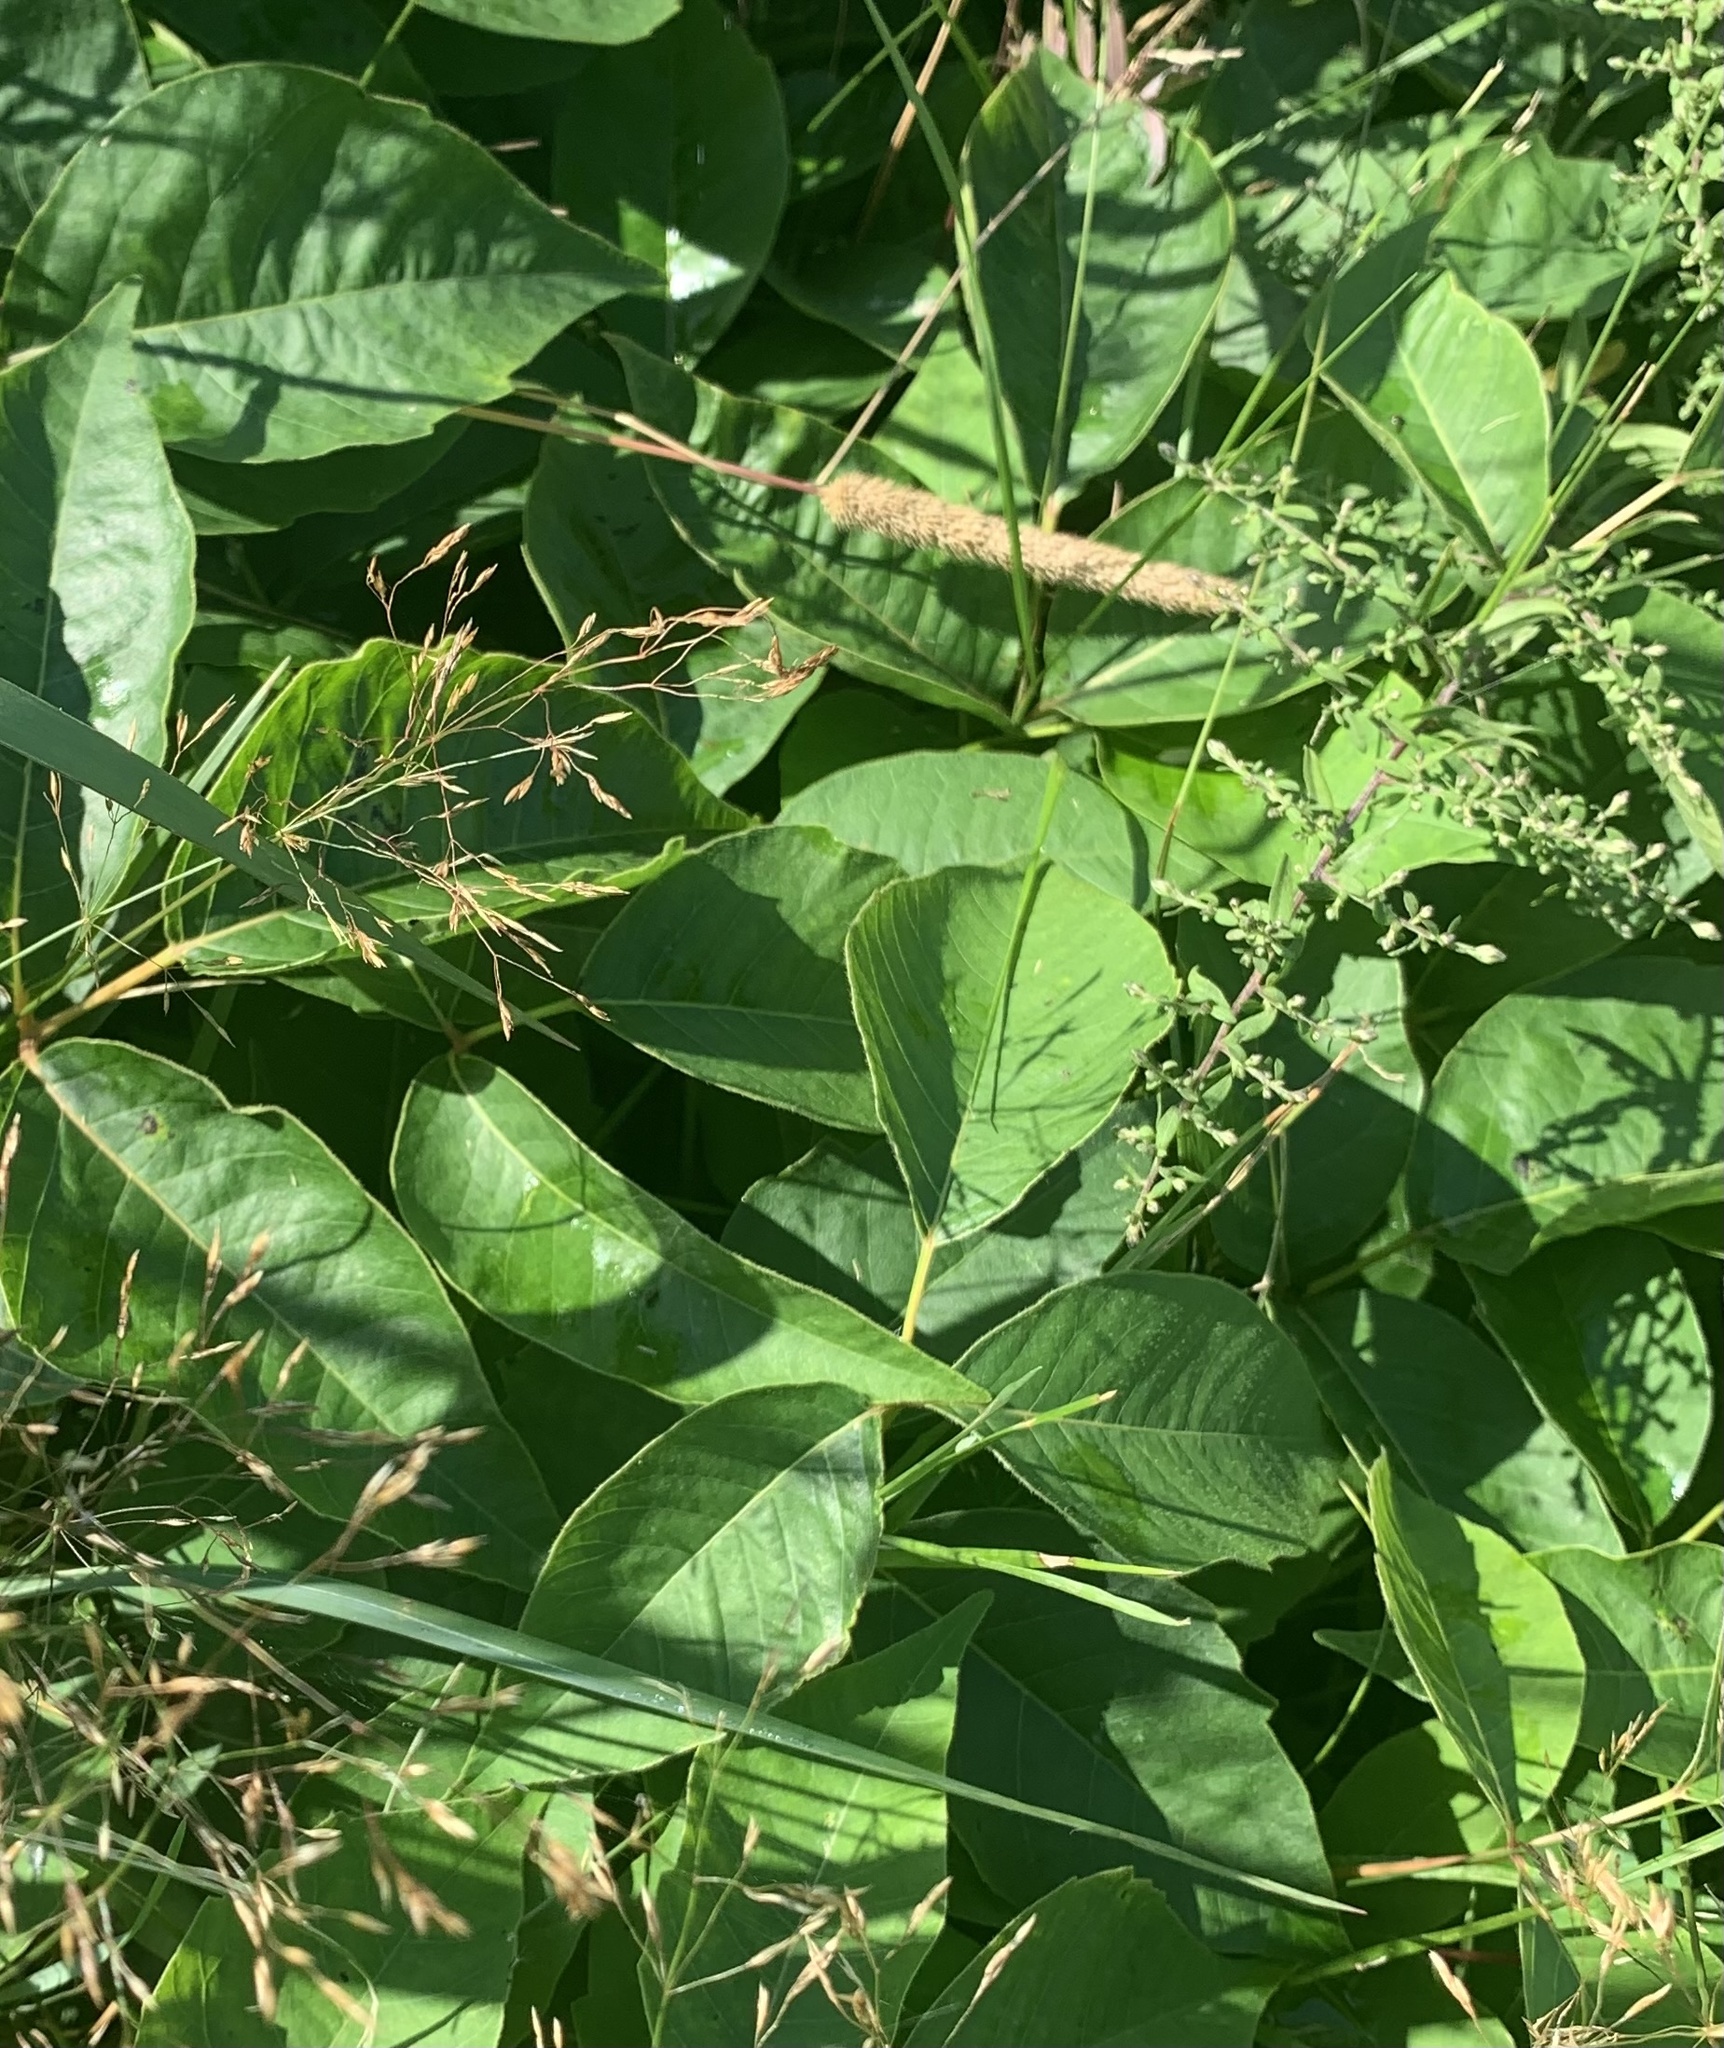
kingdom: Plantae
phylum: Tracheophyta
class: Magnoliopsida
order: Sapindales
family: Anacardiaceae
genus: Toxicodendron
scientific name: Toxicodendron rydbergii
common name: Rydberg's poison-ivy
